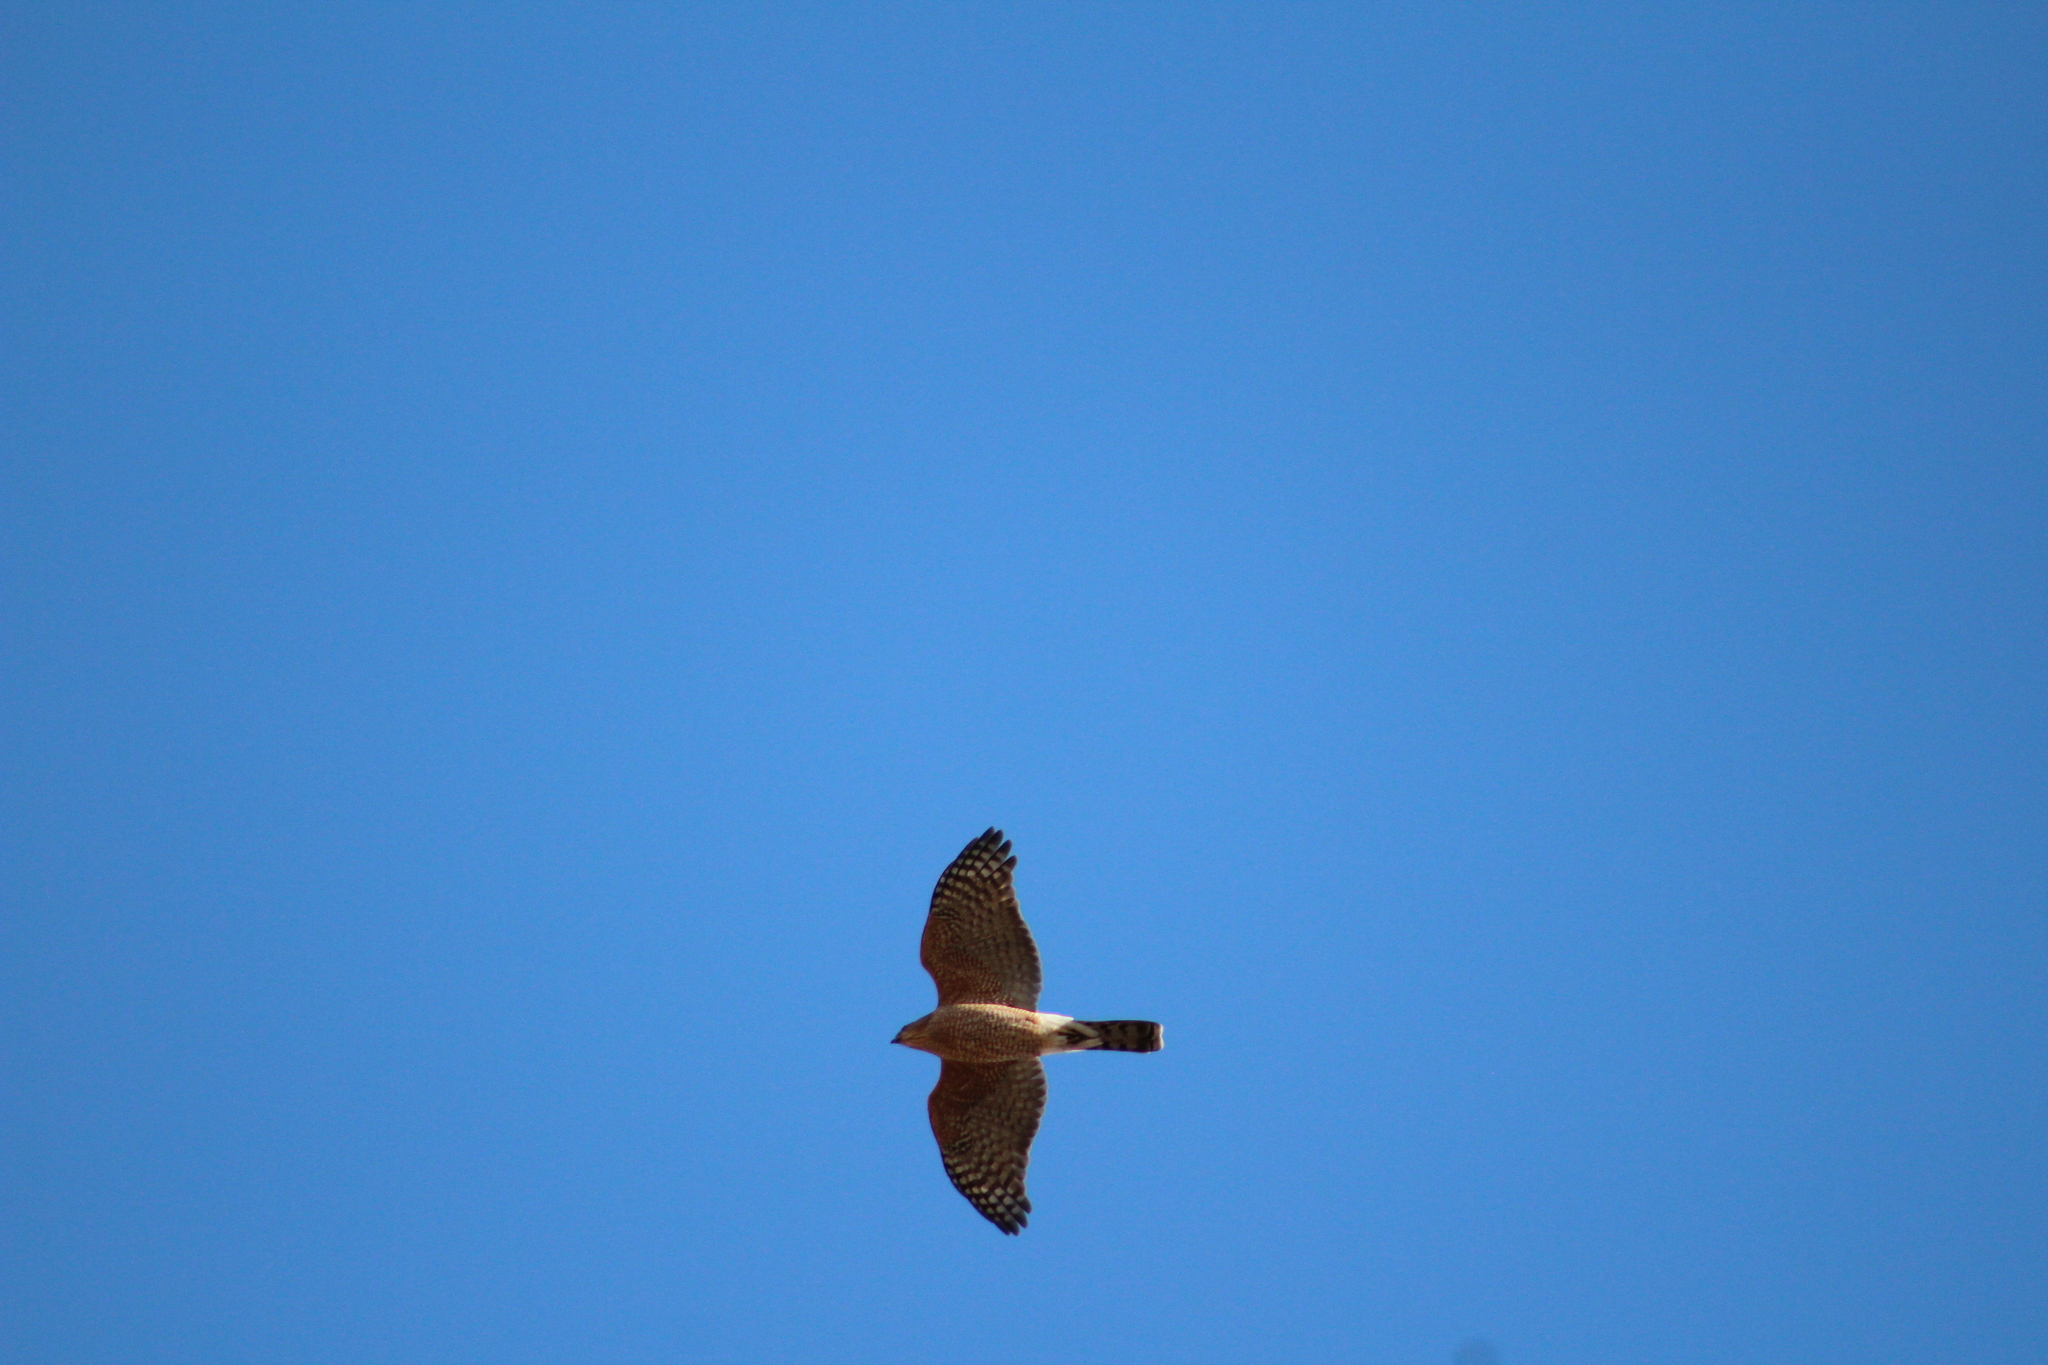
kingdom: Animalia
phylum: Chordata
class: Aves
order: Accipitriformes
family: Accipitridae
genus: Accipiter
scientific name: Accipiter cooperii
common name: Cooper's hawk
